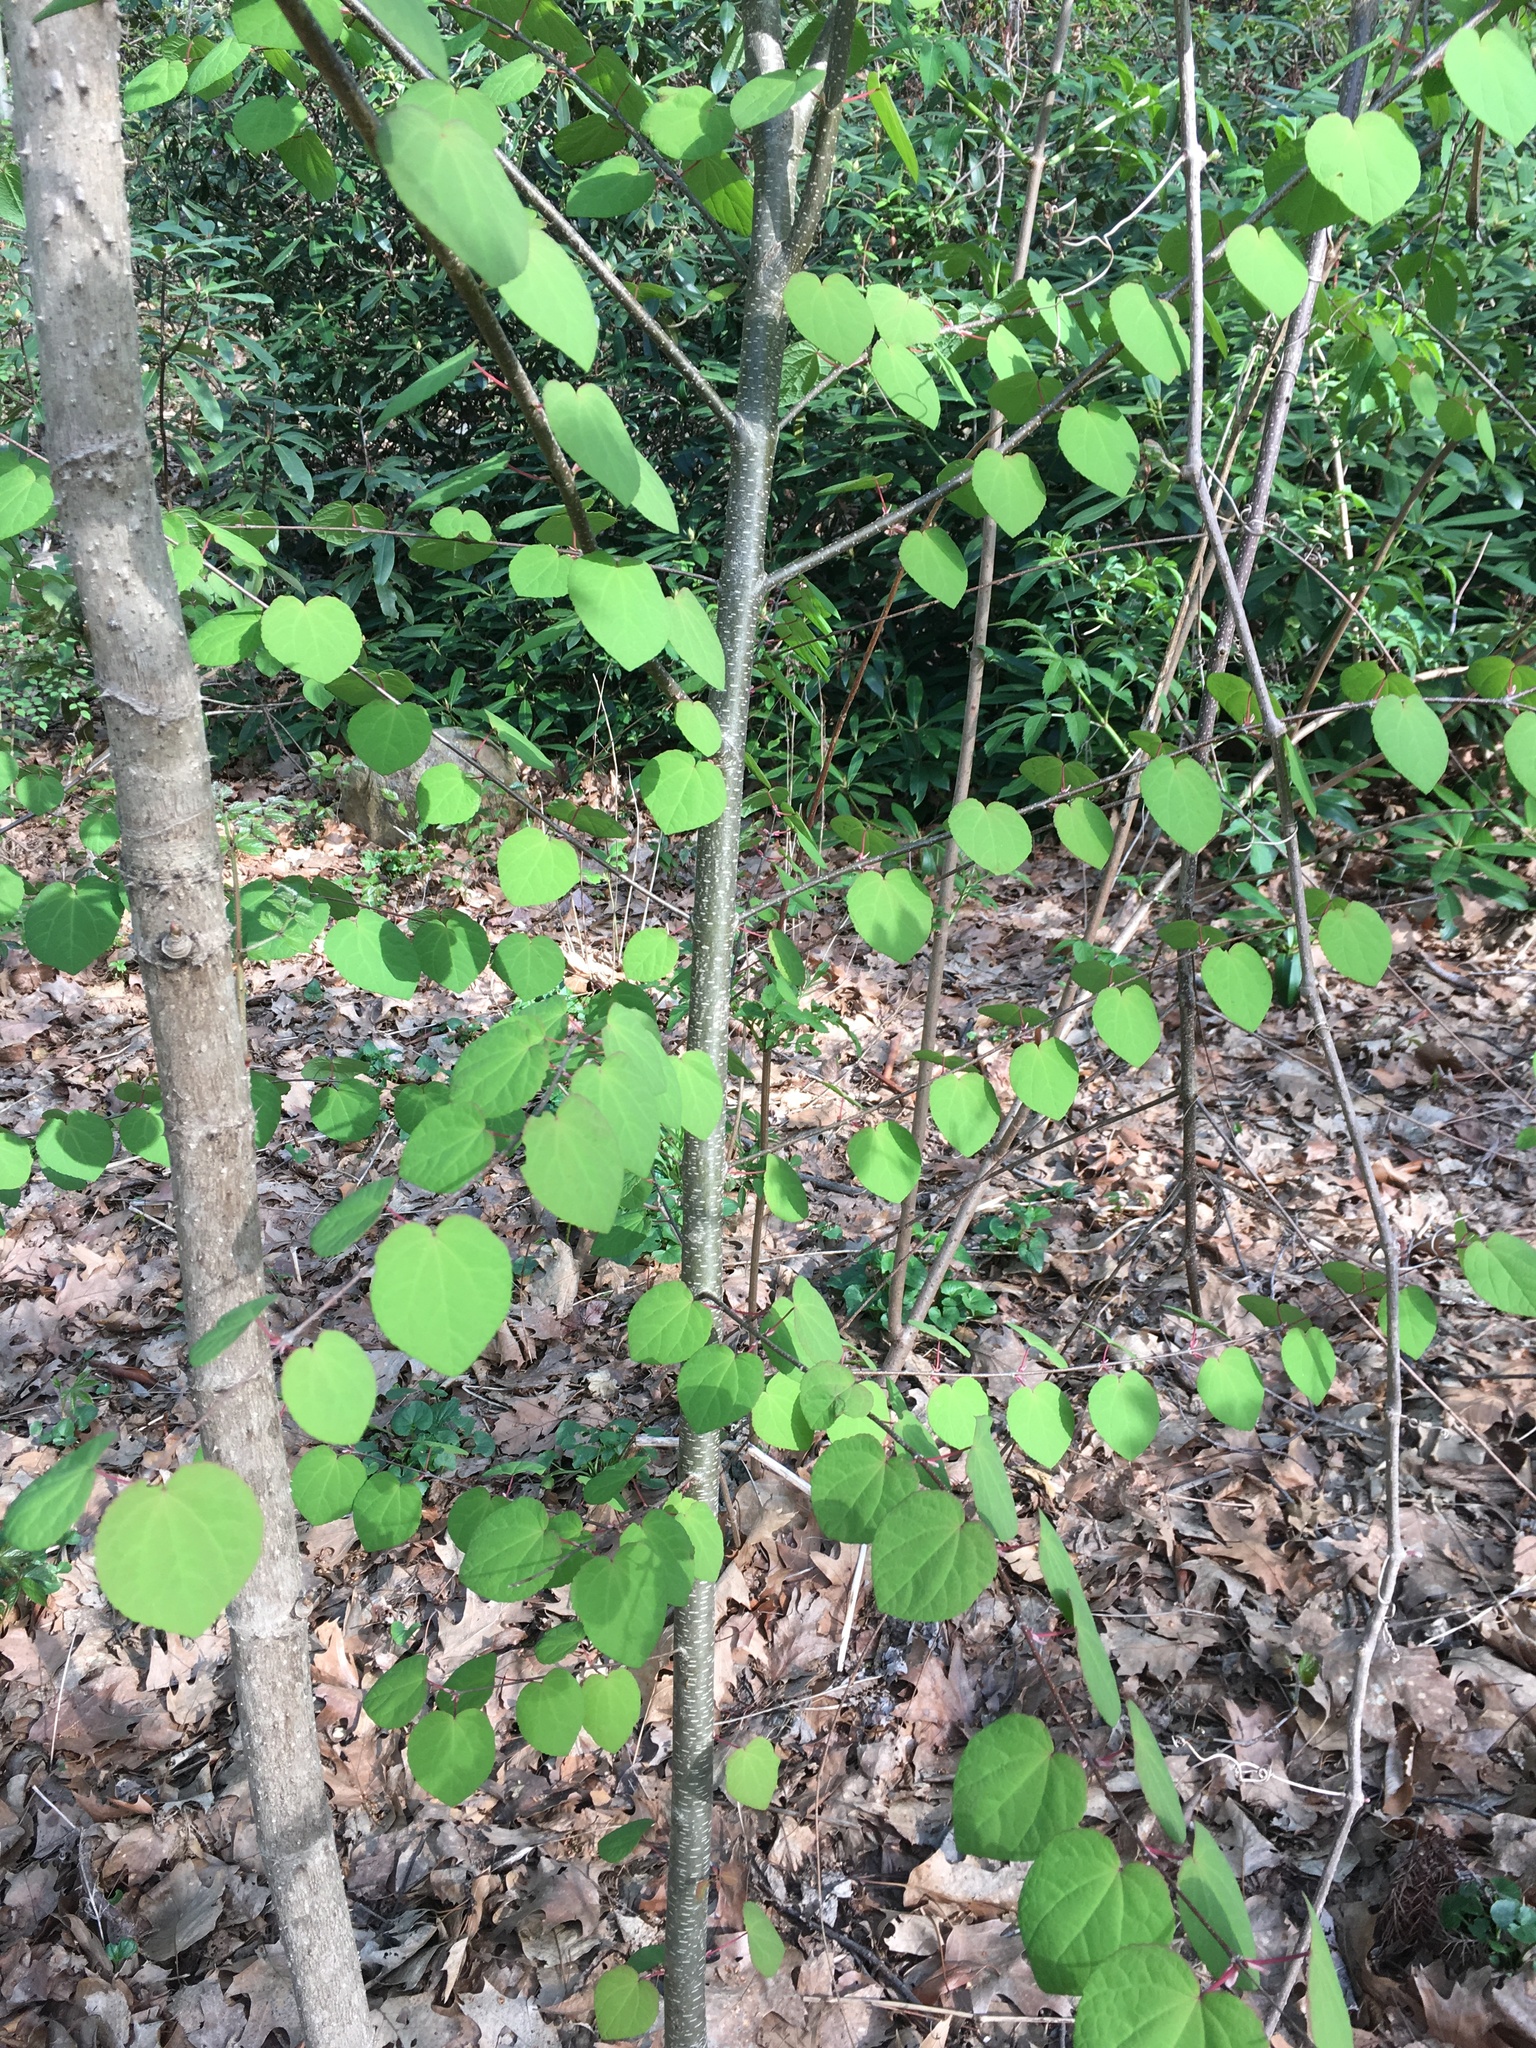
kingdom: Plantae
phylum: Tracheophyta
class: Magnoliopsida
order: Saxifragales
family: Cercidiphyllaceae
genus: Cercidiphyllum
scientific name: Cercidiphyllum japonicum
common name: Katsura tree
